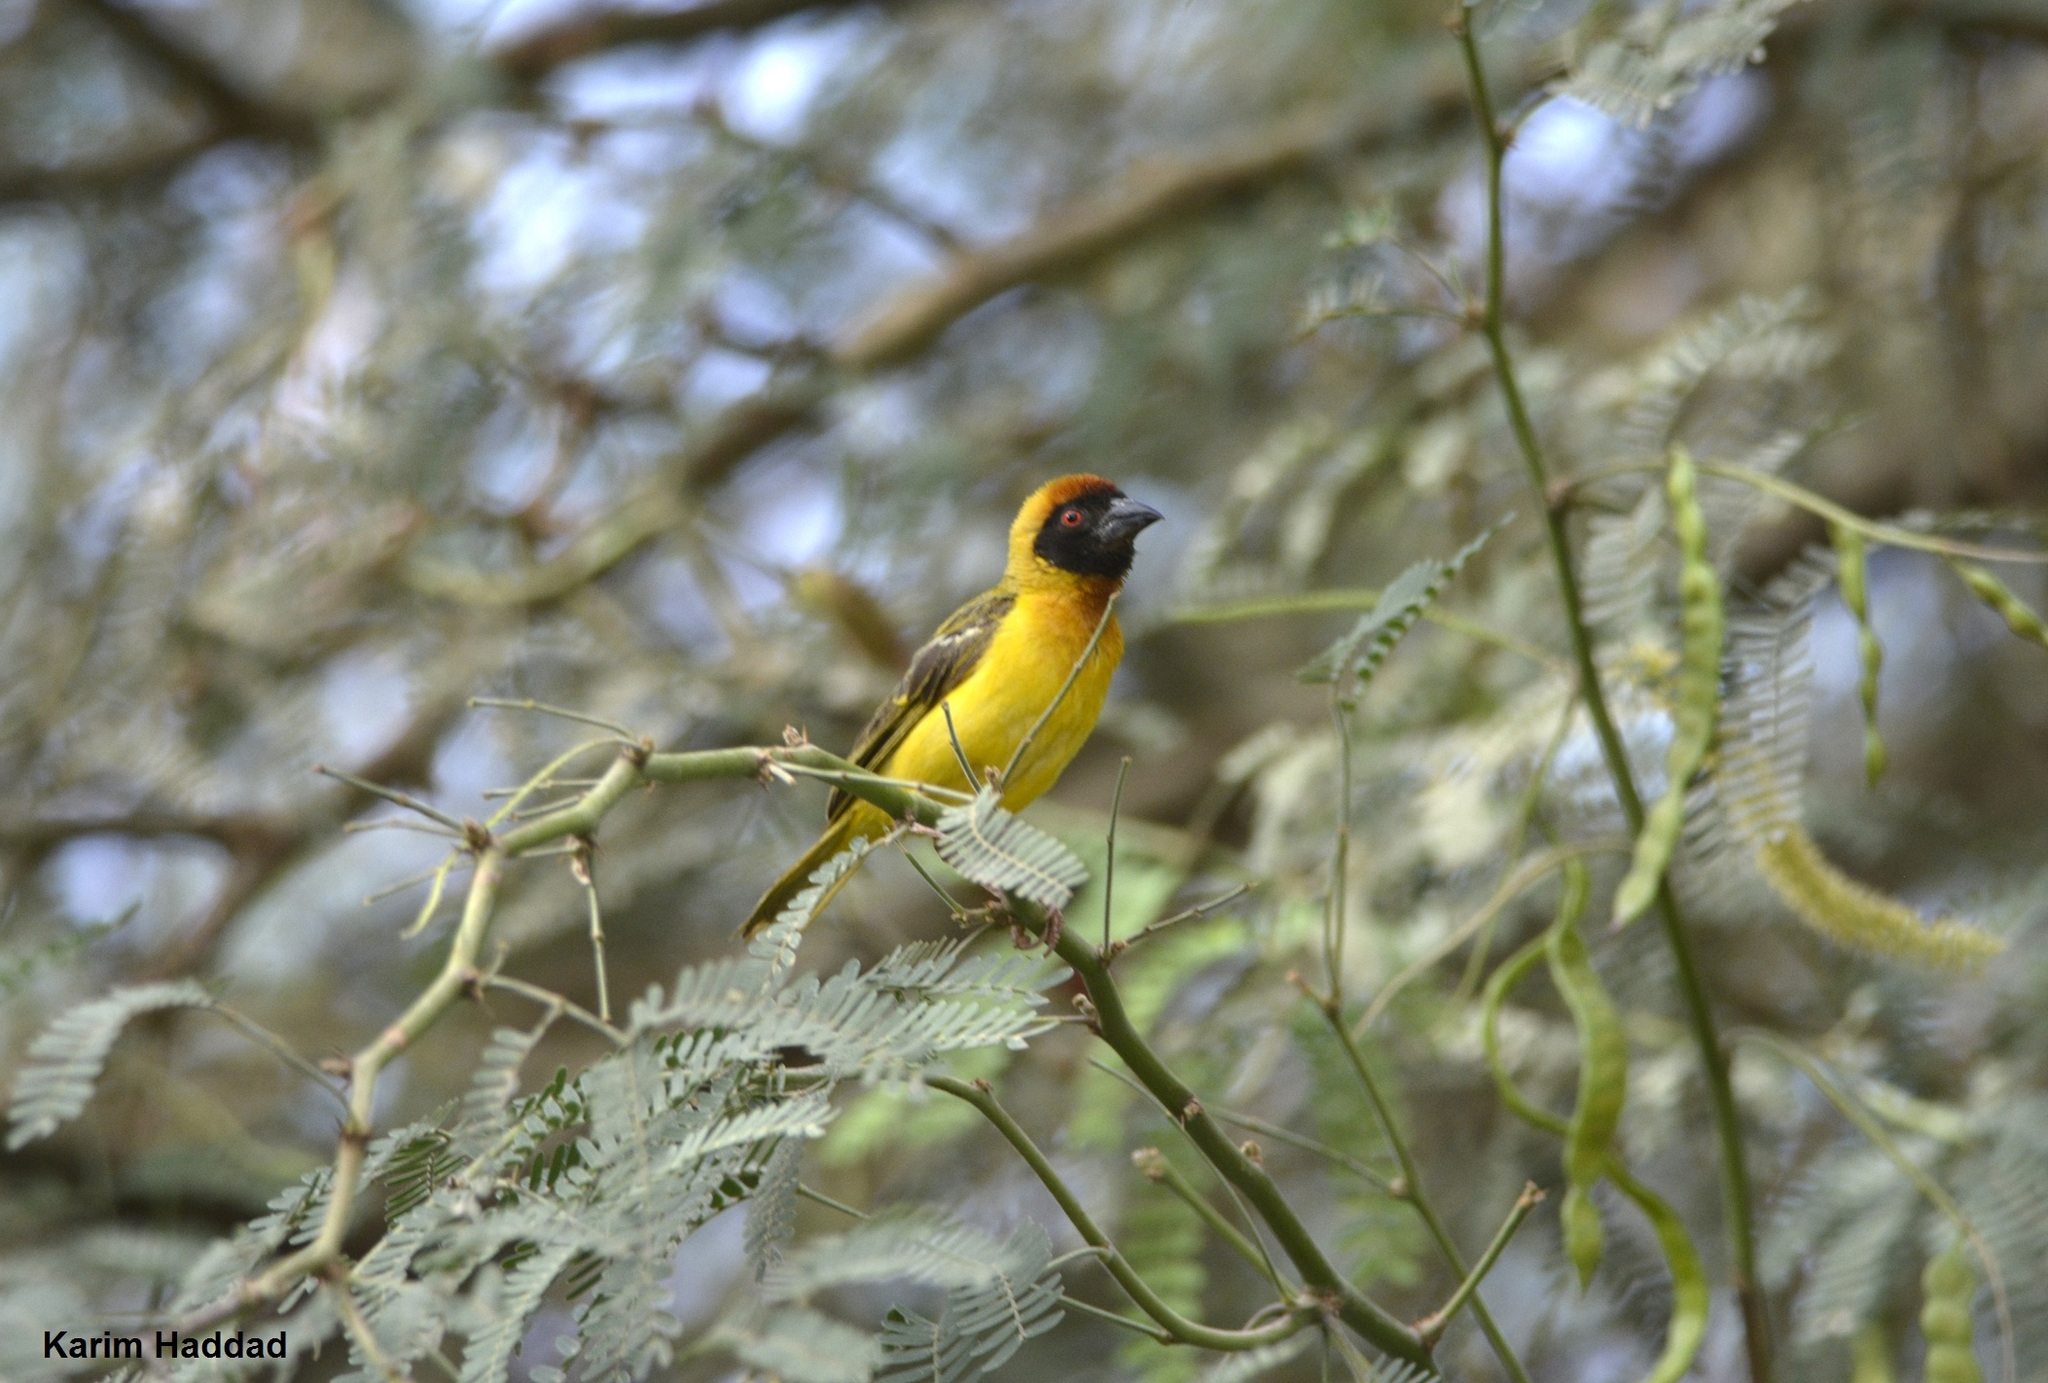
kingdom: Animalia
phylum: Chordata
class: Aves
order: Passeriformes
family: Ploceidae
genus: Ploceus
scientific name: Ploceus vitellinus
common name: Vitelline masked weaver
